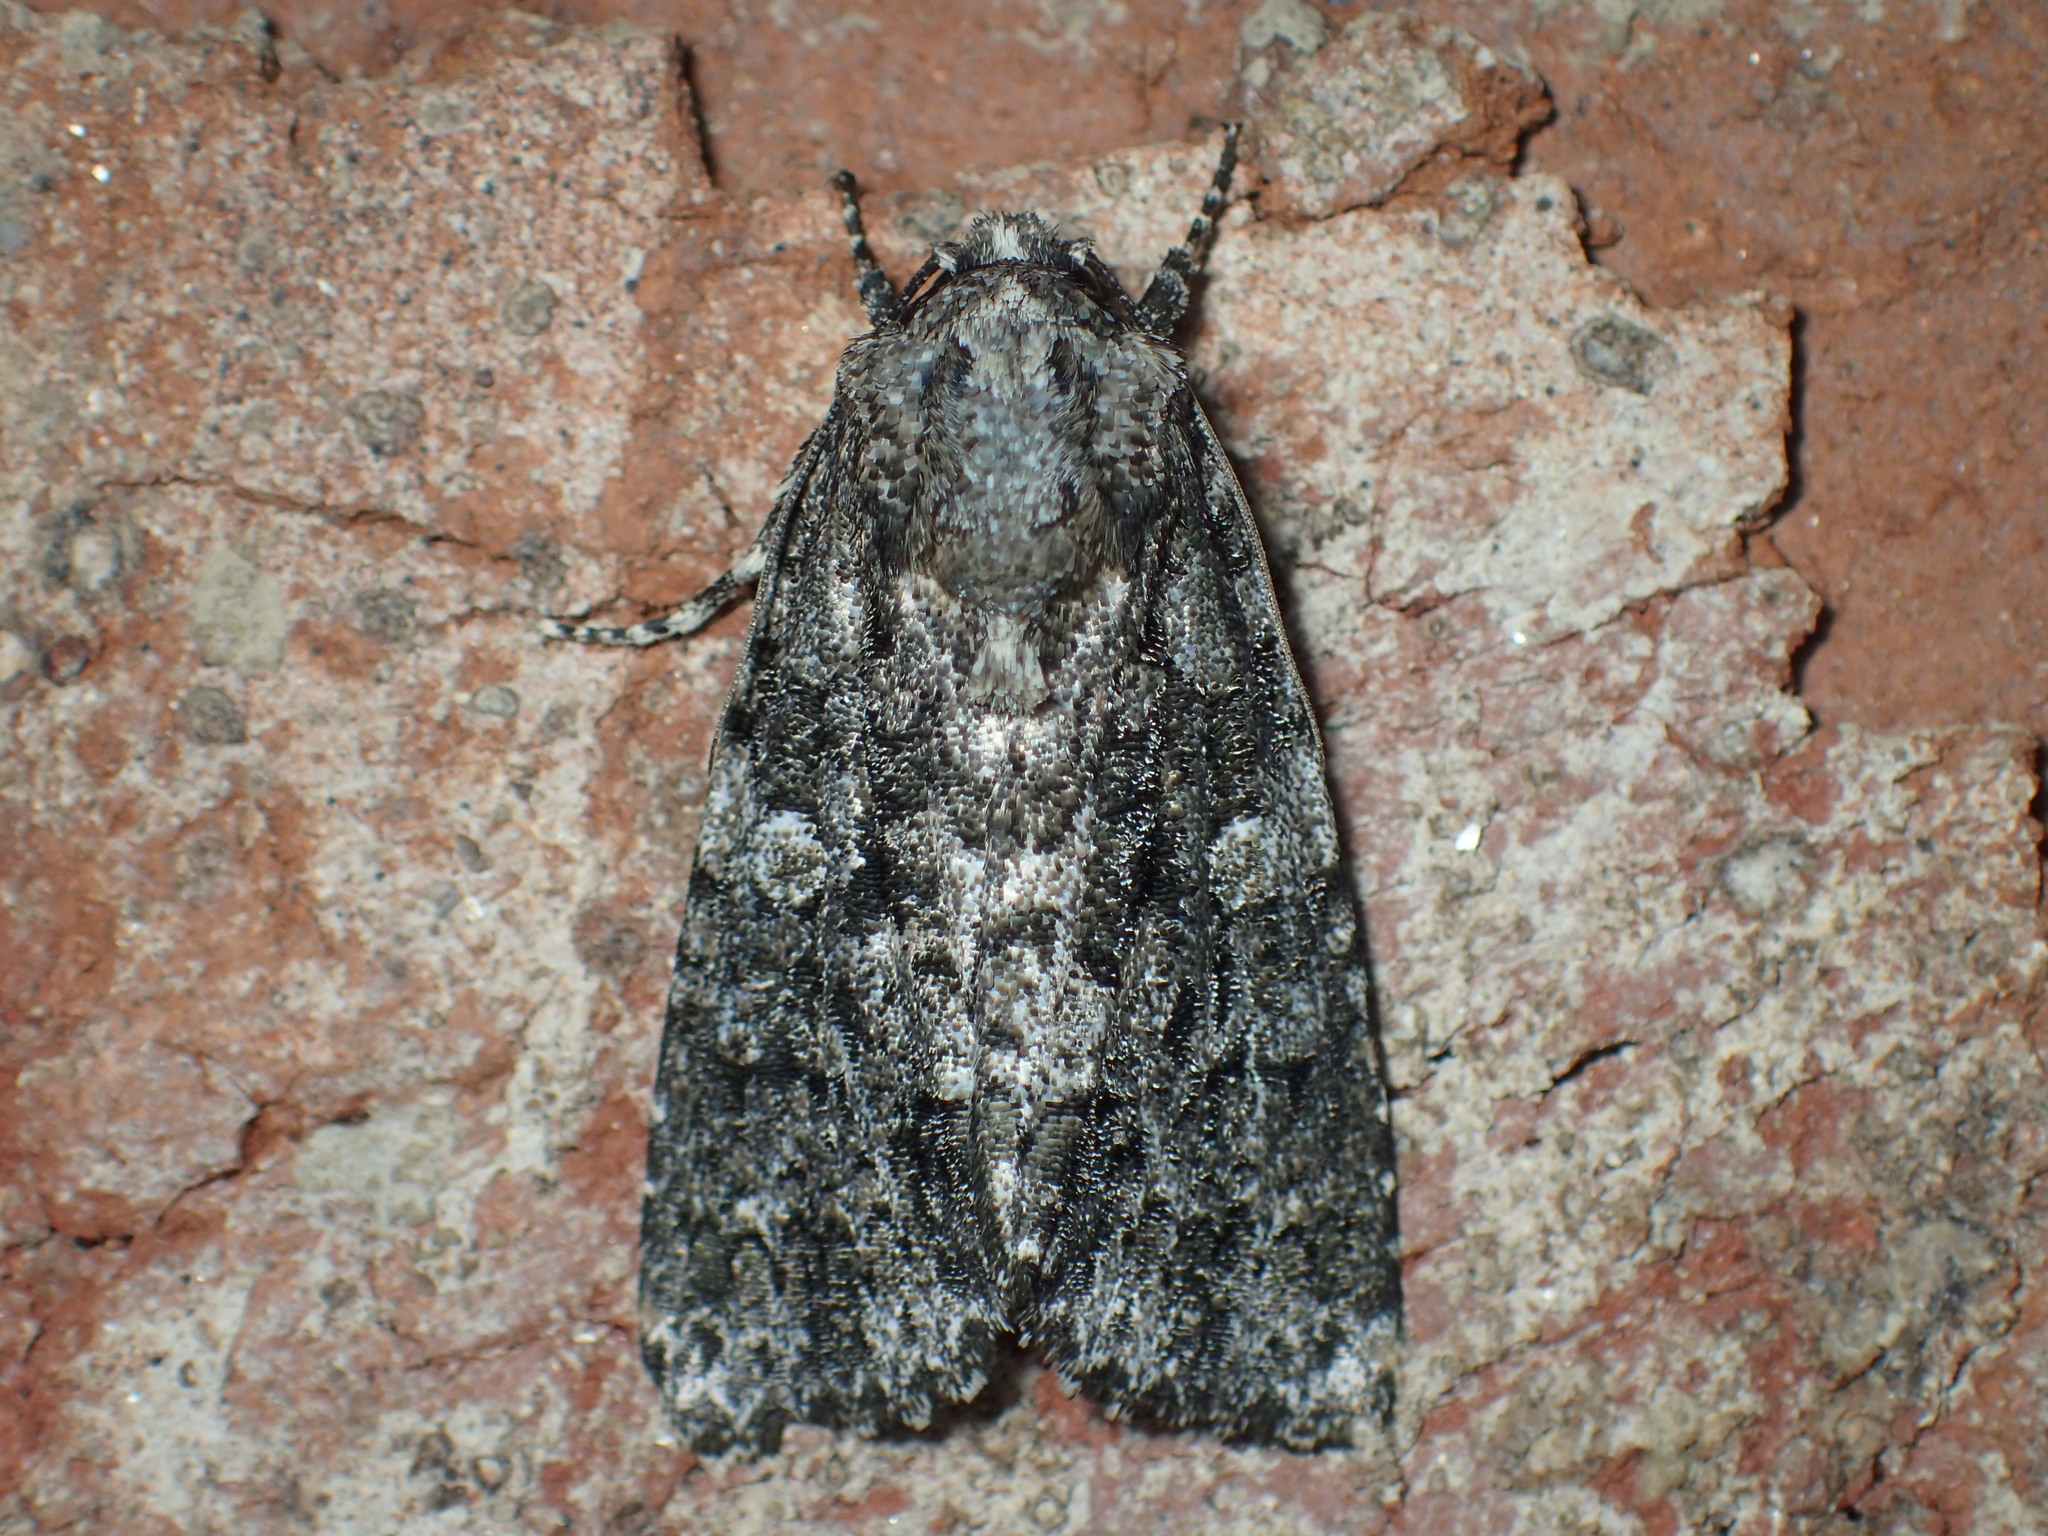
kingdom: Animalia
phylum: Arthropoda
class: Insecta
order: Lepidoptera
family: Noctuidae
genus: Acronicta
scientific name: Acronicta afflicta
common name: Afflicted dagger moth
